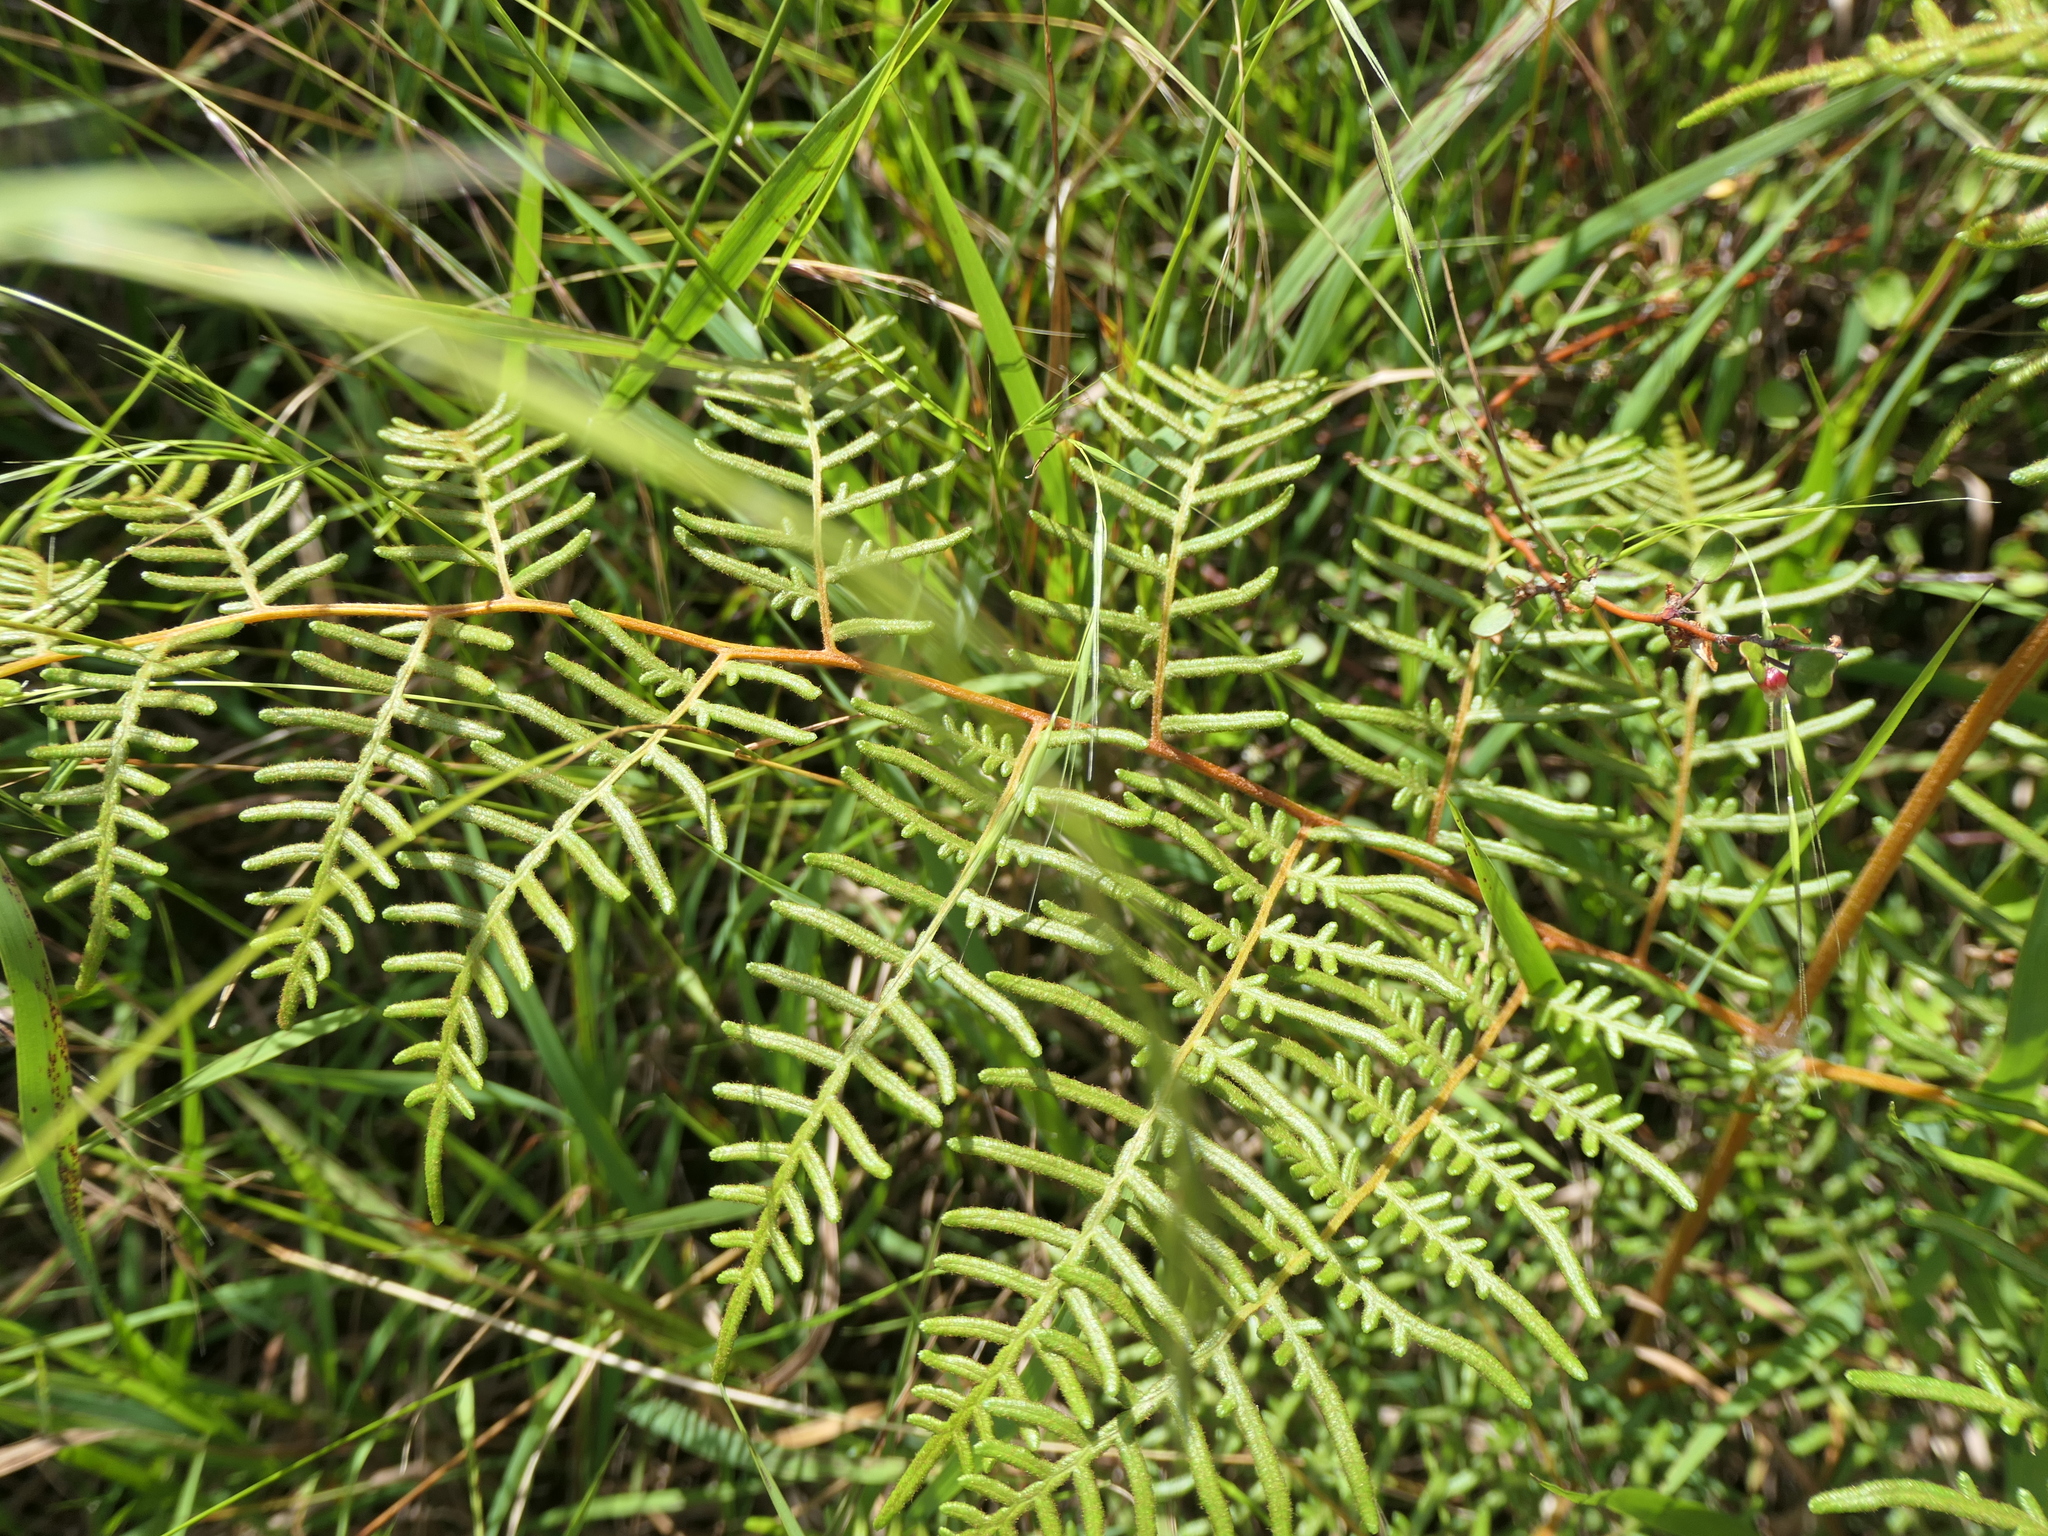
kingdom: Plantae
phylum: Tracheophyta
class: Polypodiopsida
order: Polypodiales
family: Dennstaedtiaceae
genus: Pteridium
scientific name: Pteridium esculentum
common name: Bracken fern
